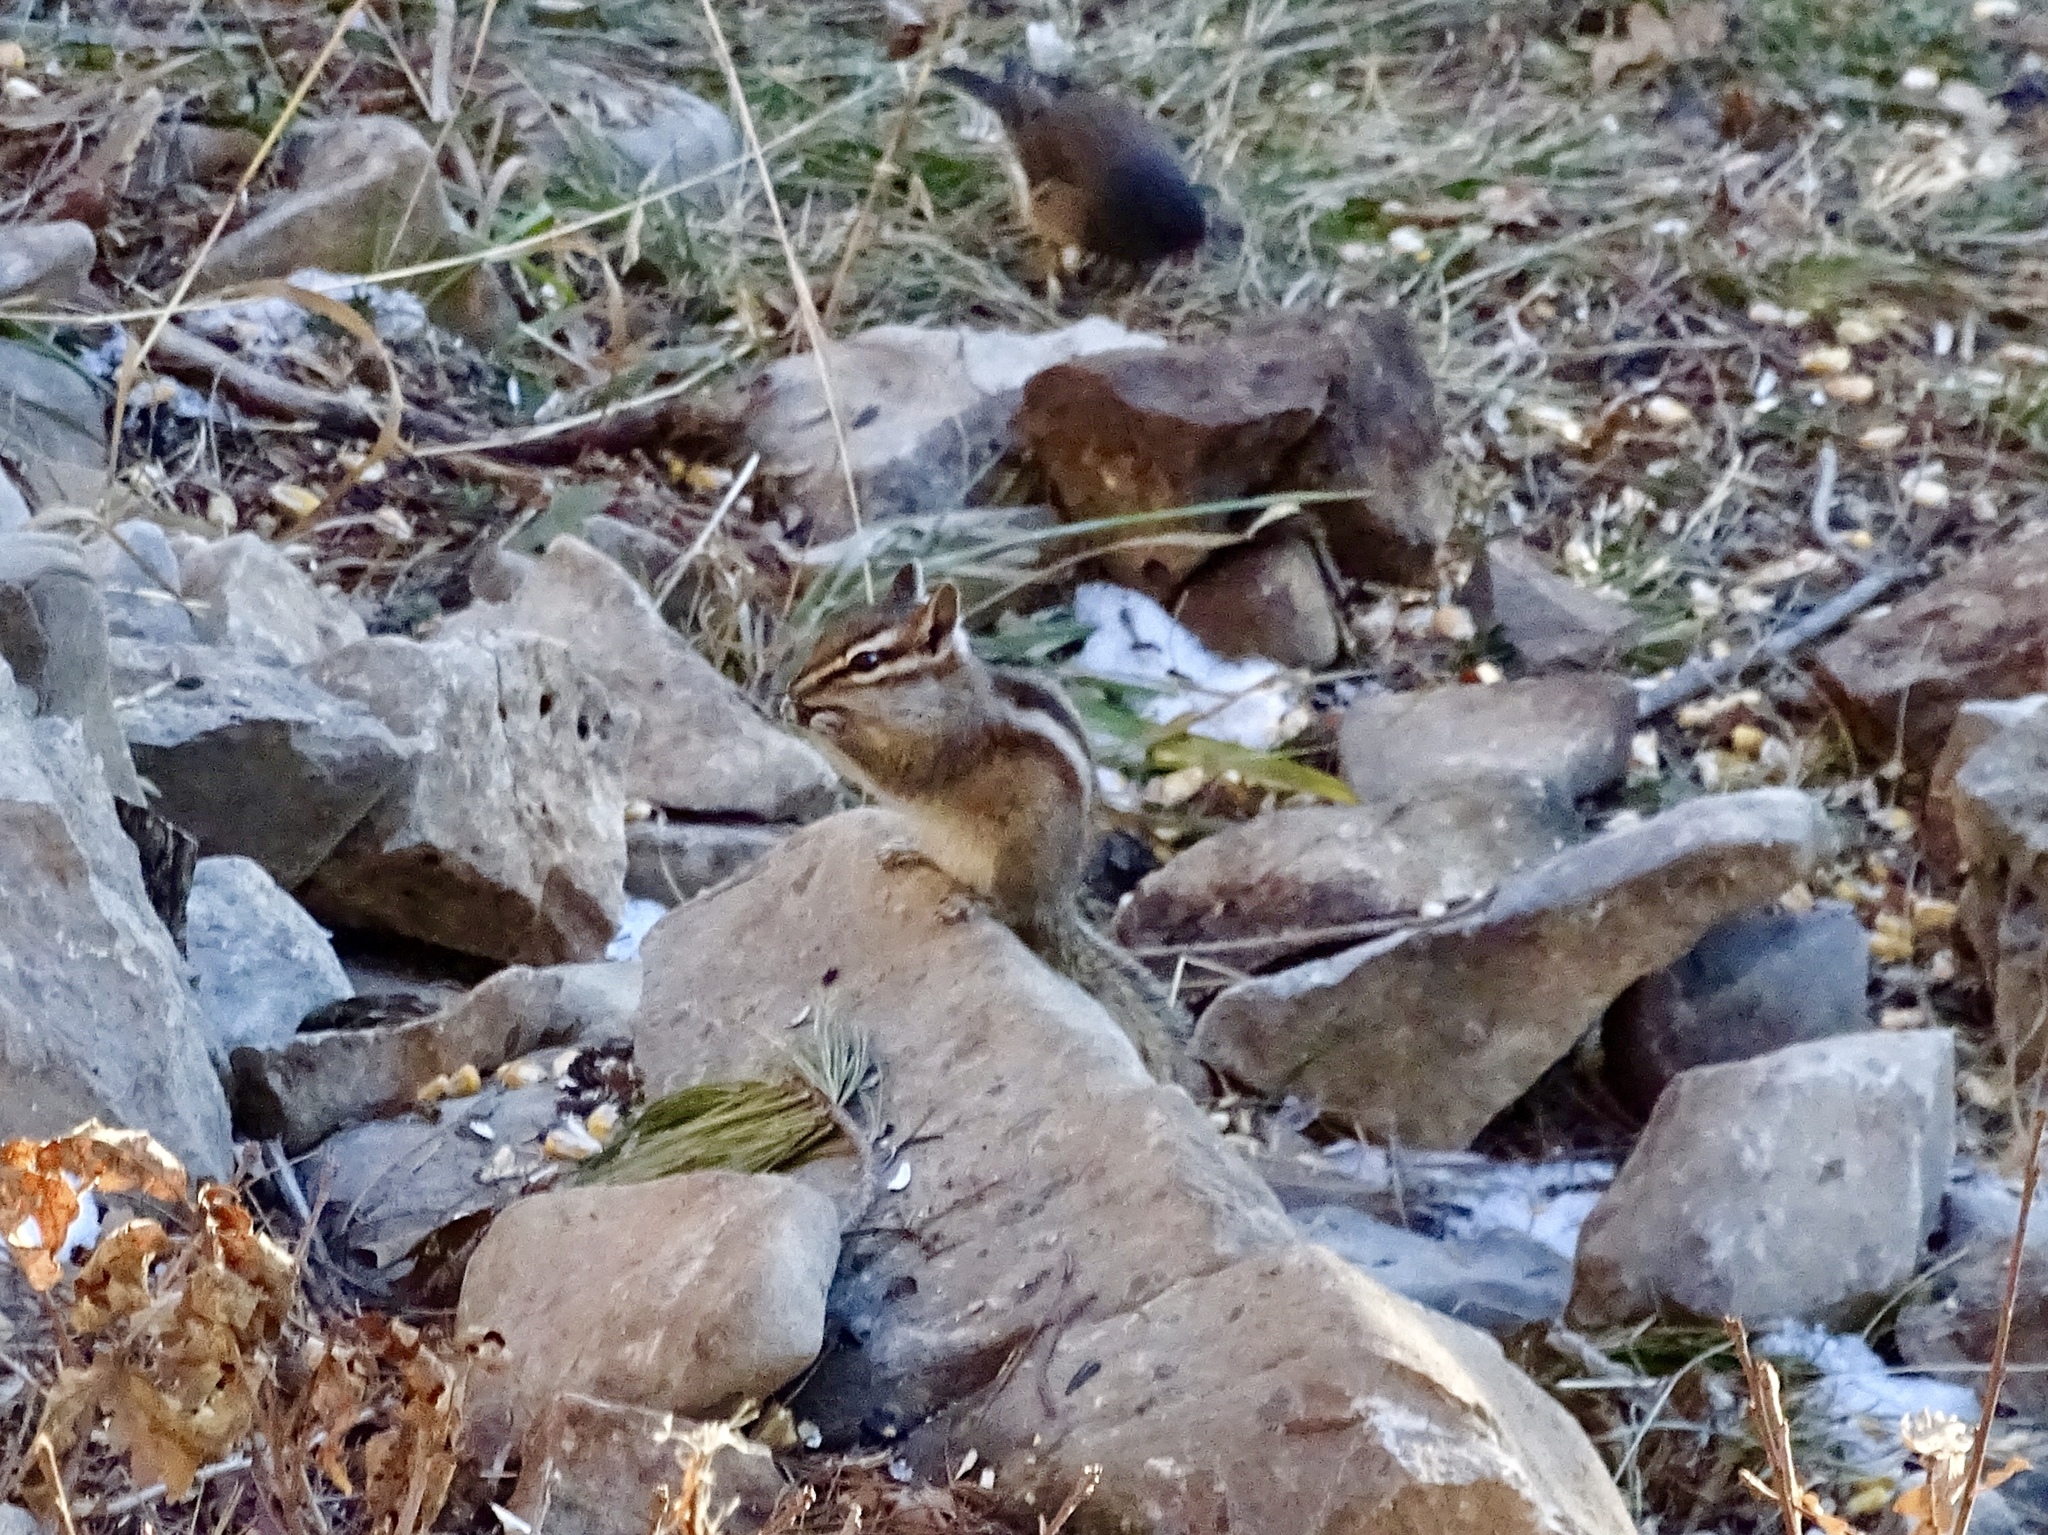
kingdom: Animalia
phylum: Chordata
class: Mammalia
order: Rodentia
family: Sciuridae
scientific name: Sciuridae
